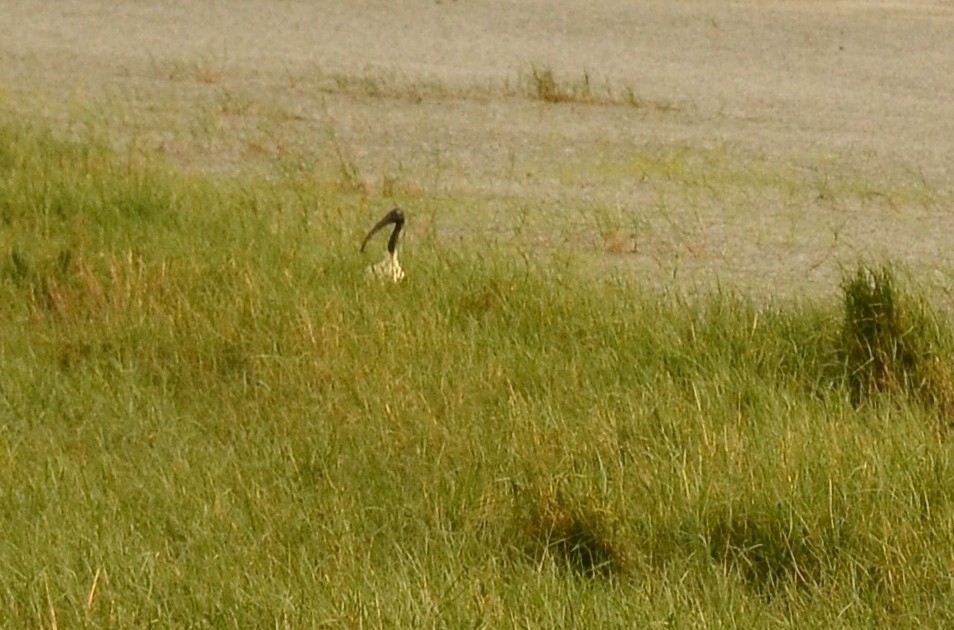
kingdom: Animalia
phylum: Chordata
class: Aves
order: Pelecaniformes
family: Threskiornithidae
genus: Threskiornis
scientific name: Threskiornis melanocephalus
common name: Black-headed ibis
